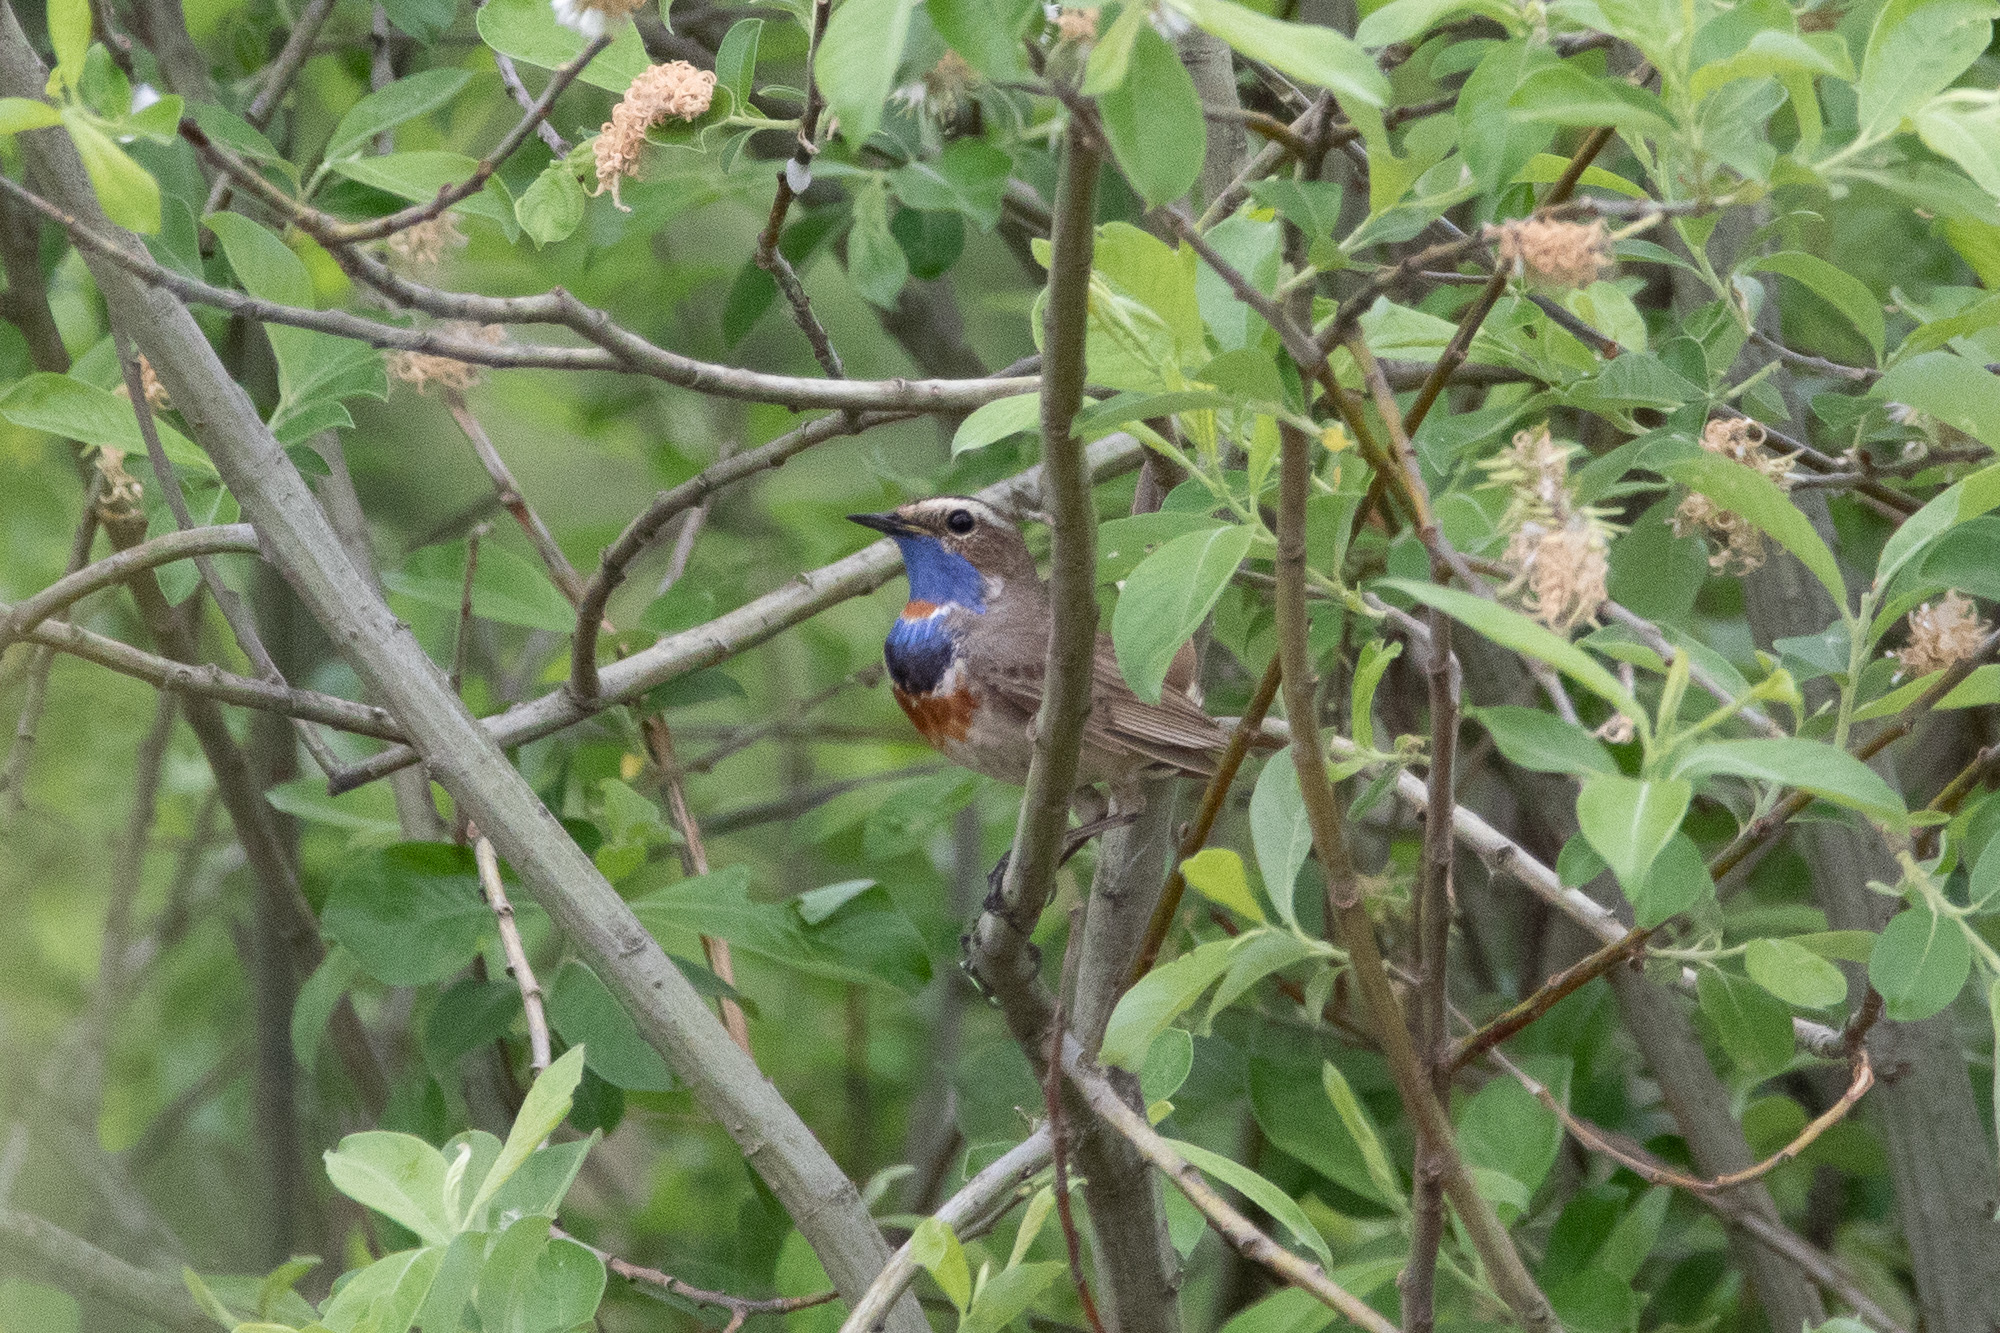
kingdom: Animalia
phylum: Chordata
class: Aves
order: Passeriformes
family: Muscicapidae
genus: Luscinia
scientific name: Luscinia svecica
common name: Bluethroat
